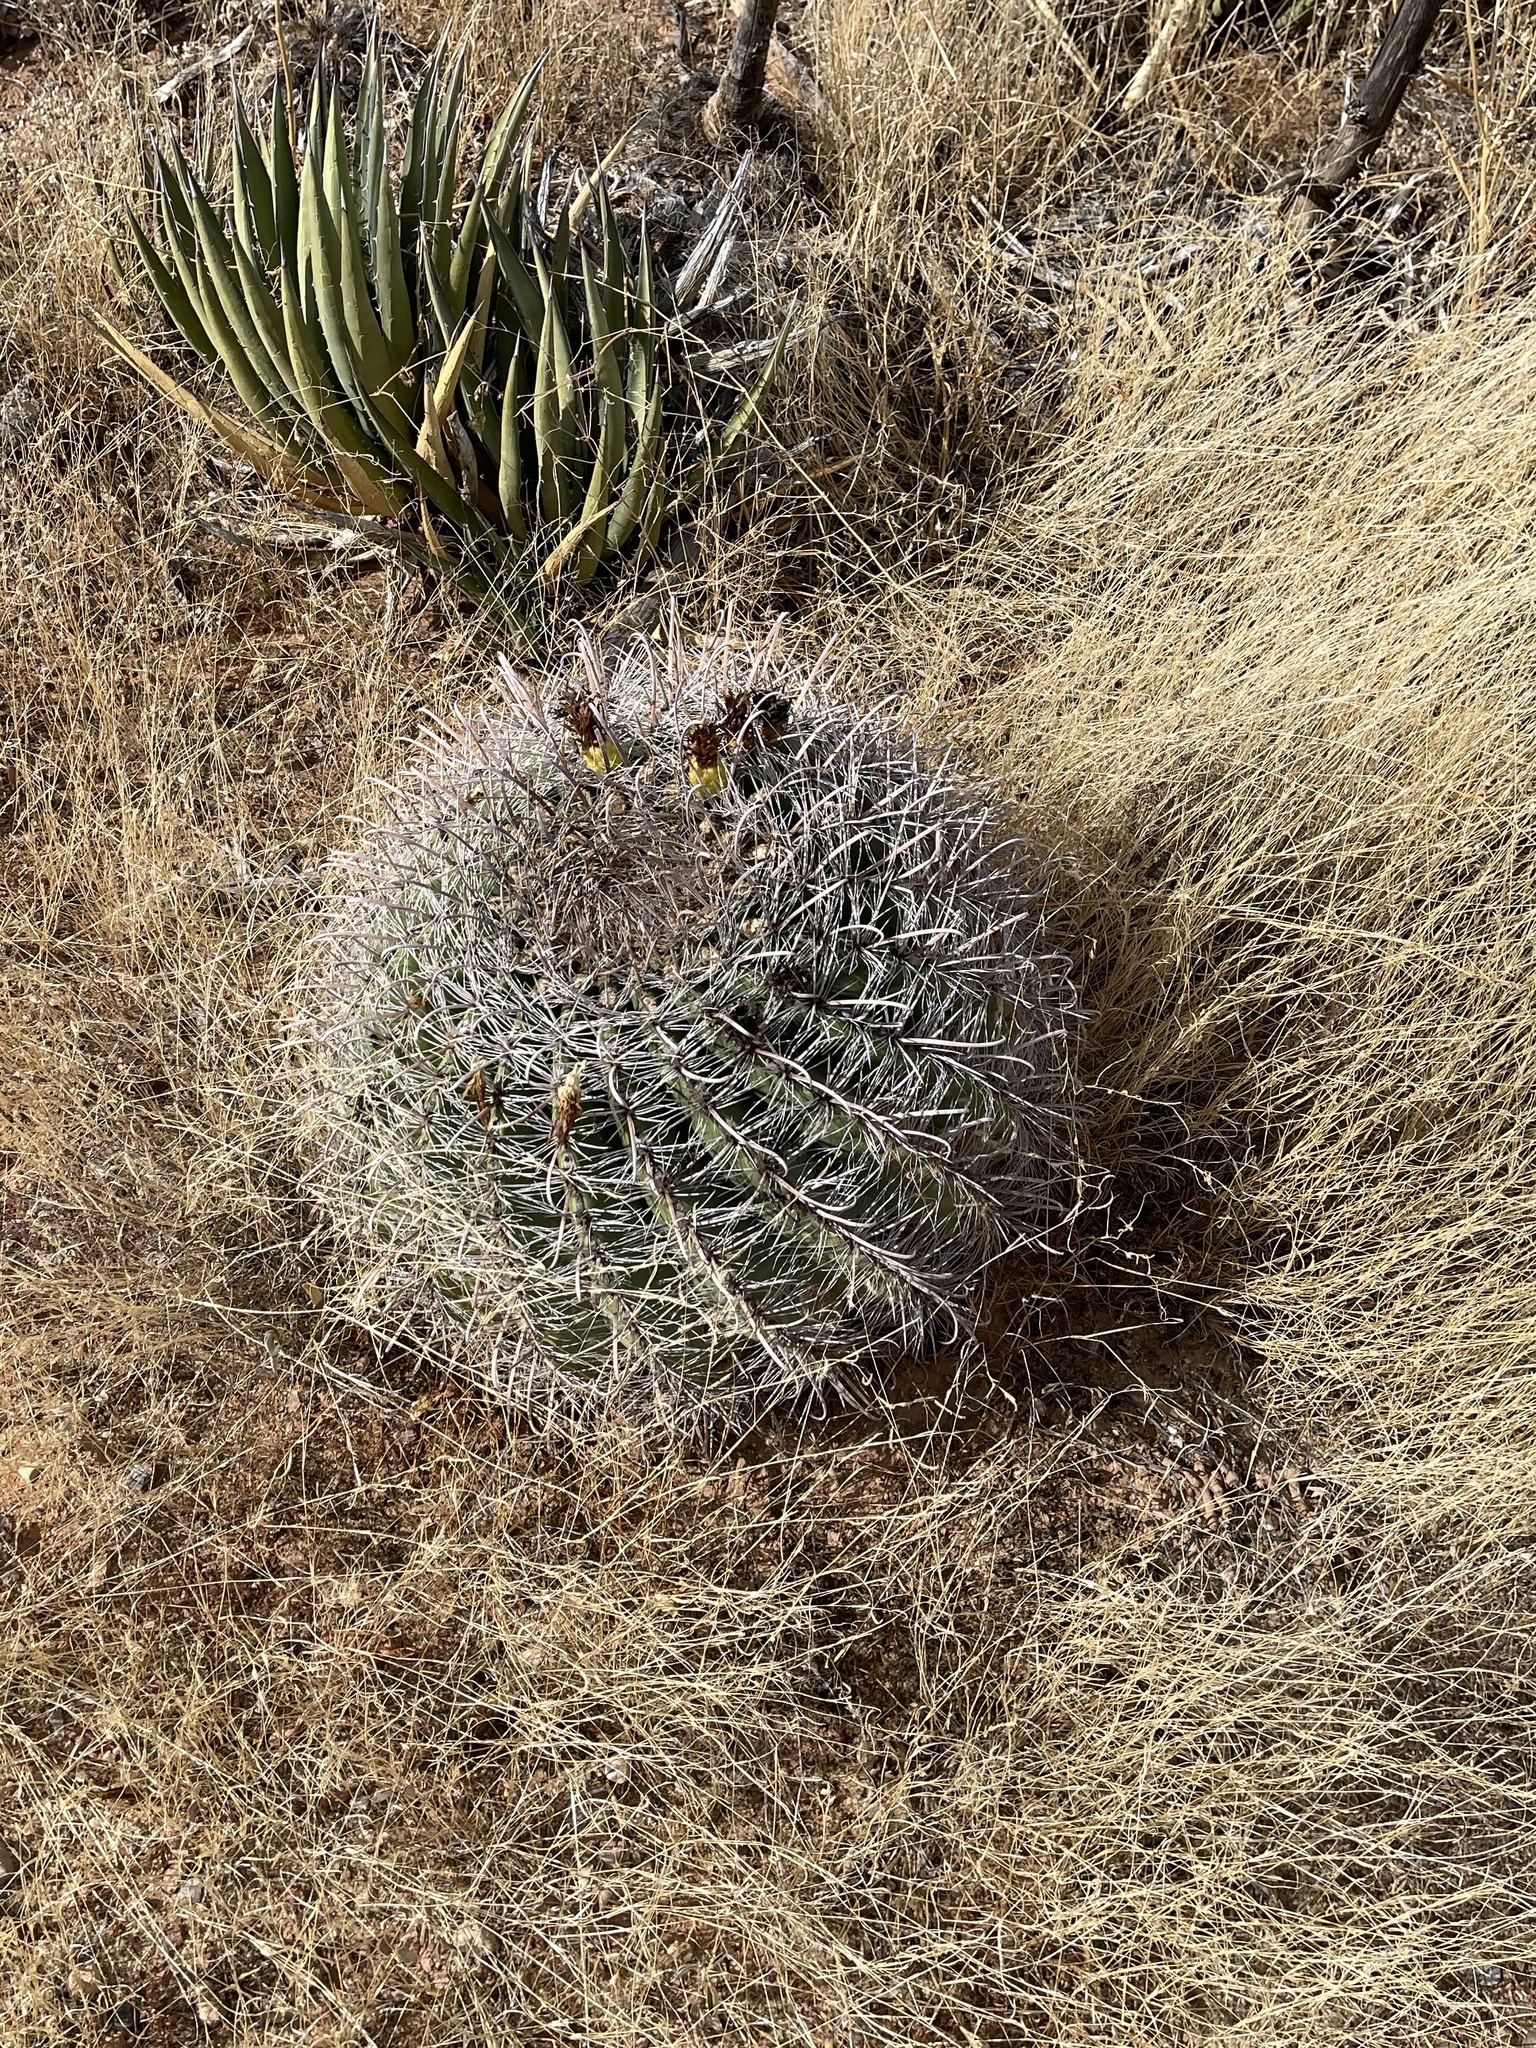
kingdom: Plantae
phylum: Tracheophyta
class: Magnoliopsida
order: Caryophyllales
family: Cactaceae
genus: Ferocactus
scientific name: Ferocactus wislizeni
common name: Candy barrel cactus
